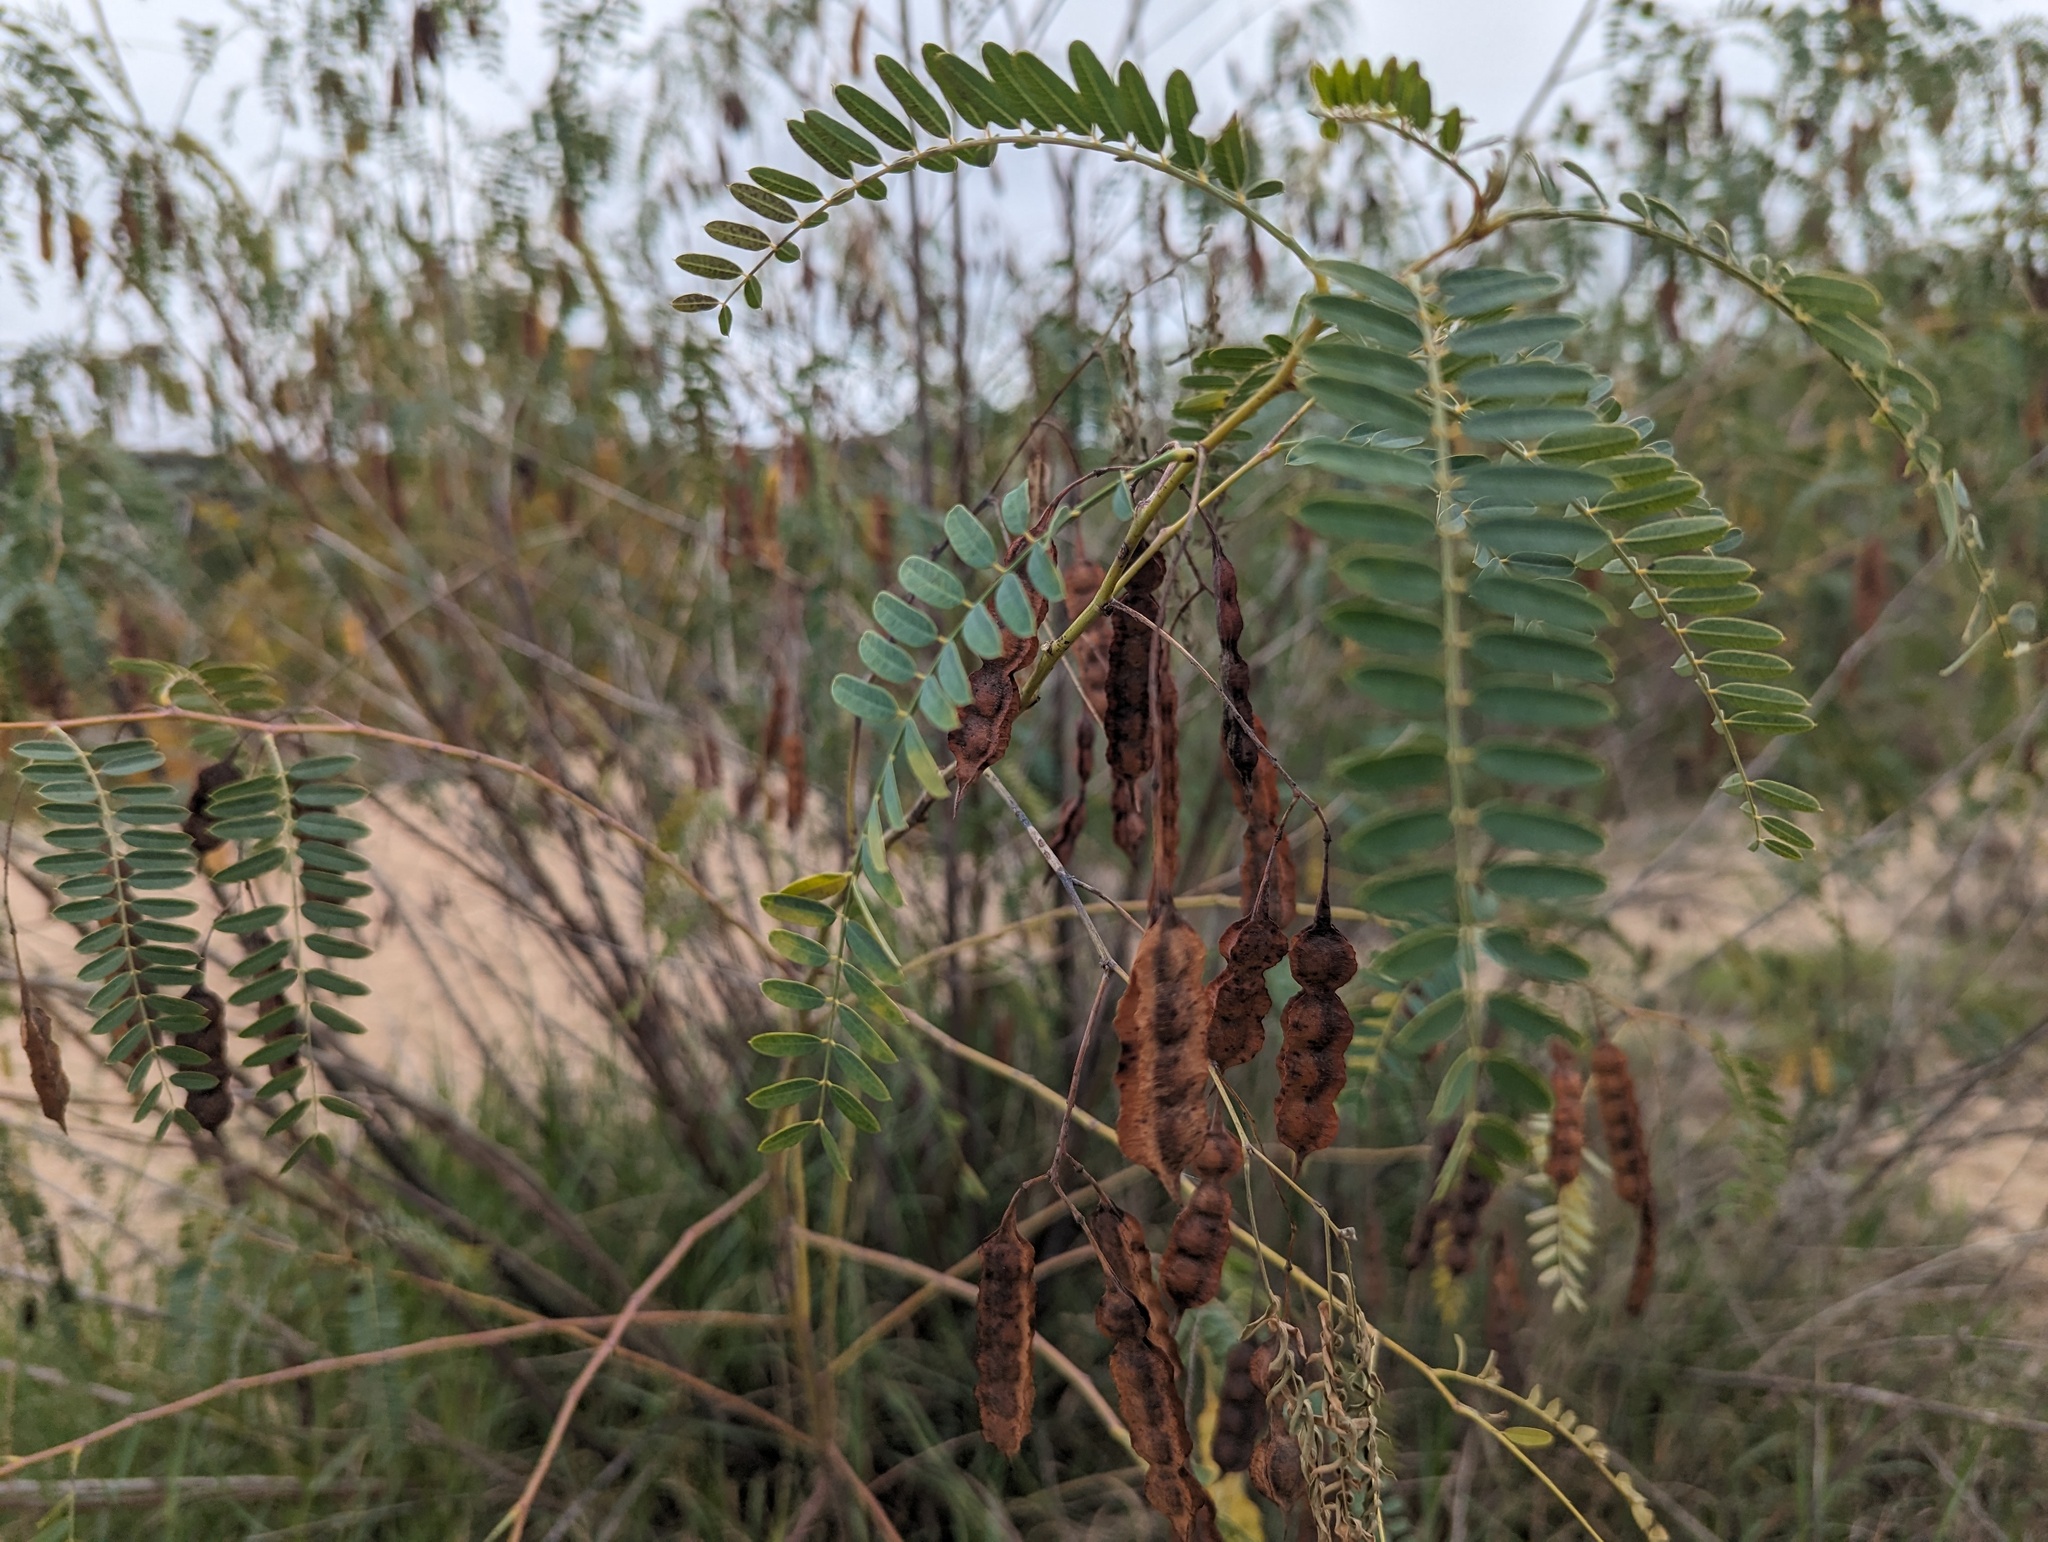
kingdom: Plantae
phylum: Tracheophyta
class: Magnoliopsida
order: Fabales
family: Fabaceae
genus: Sesbania
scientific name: Sesbania drummondii
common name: Poison-bean
